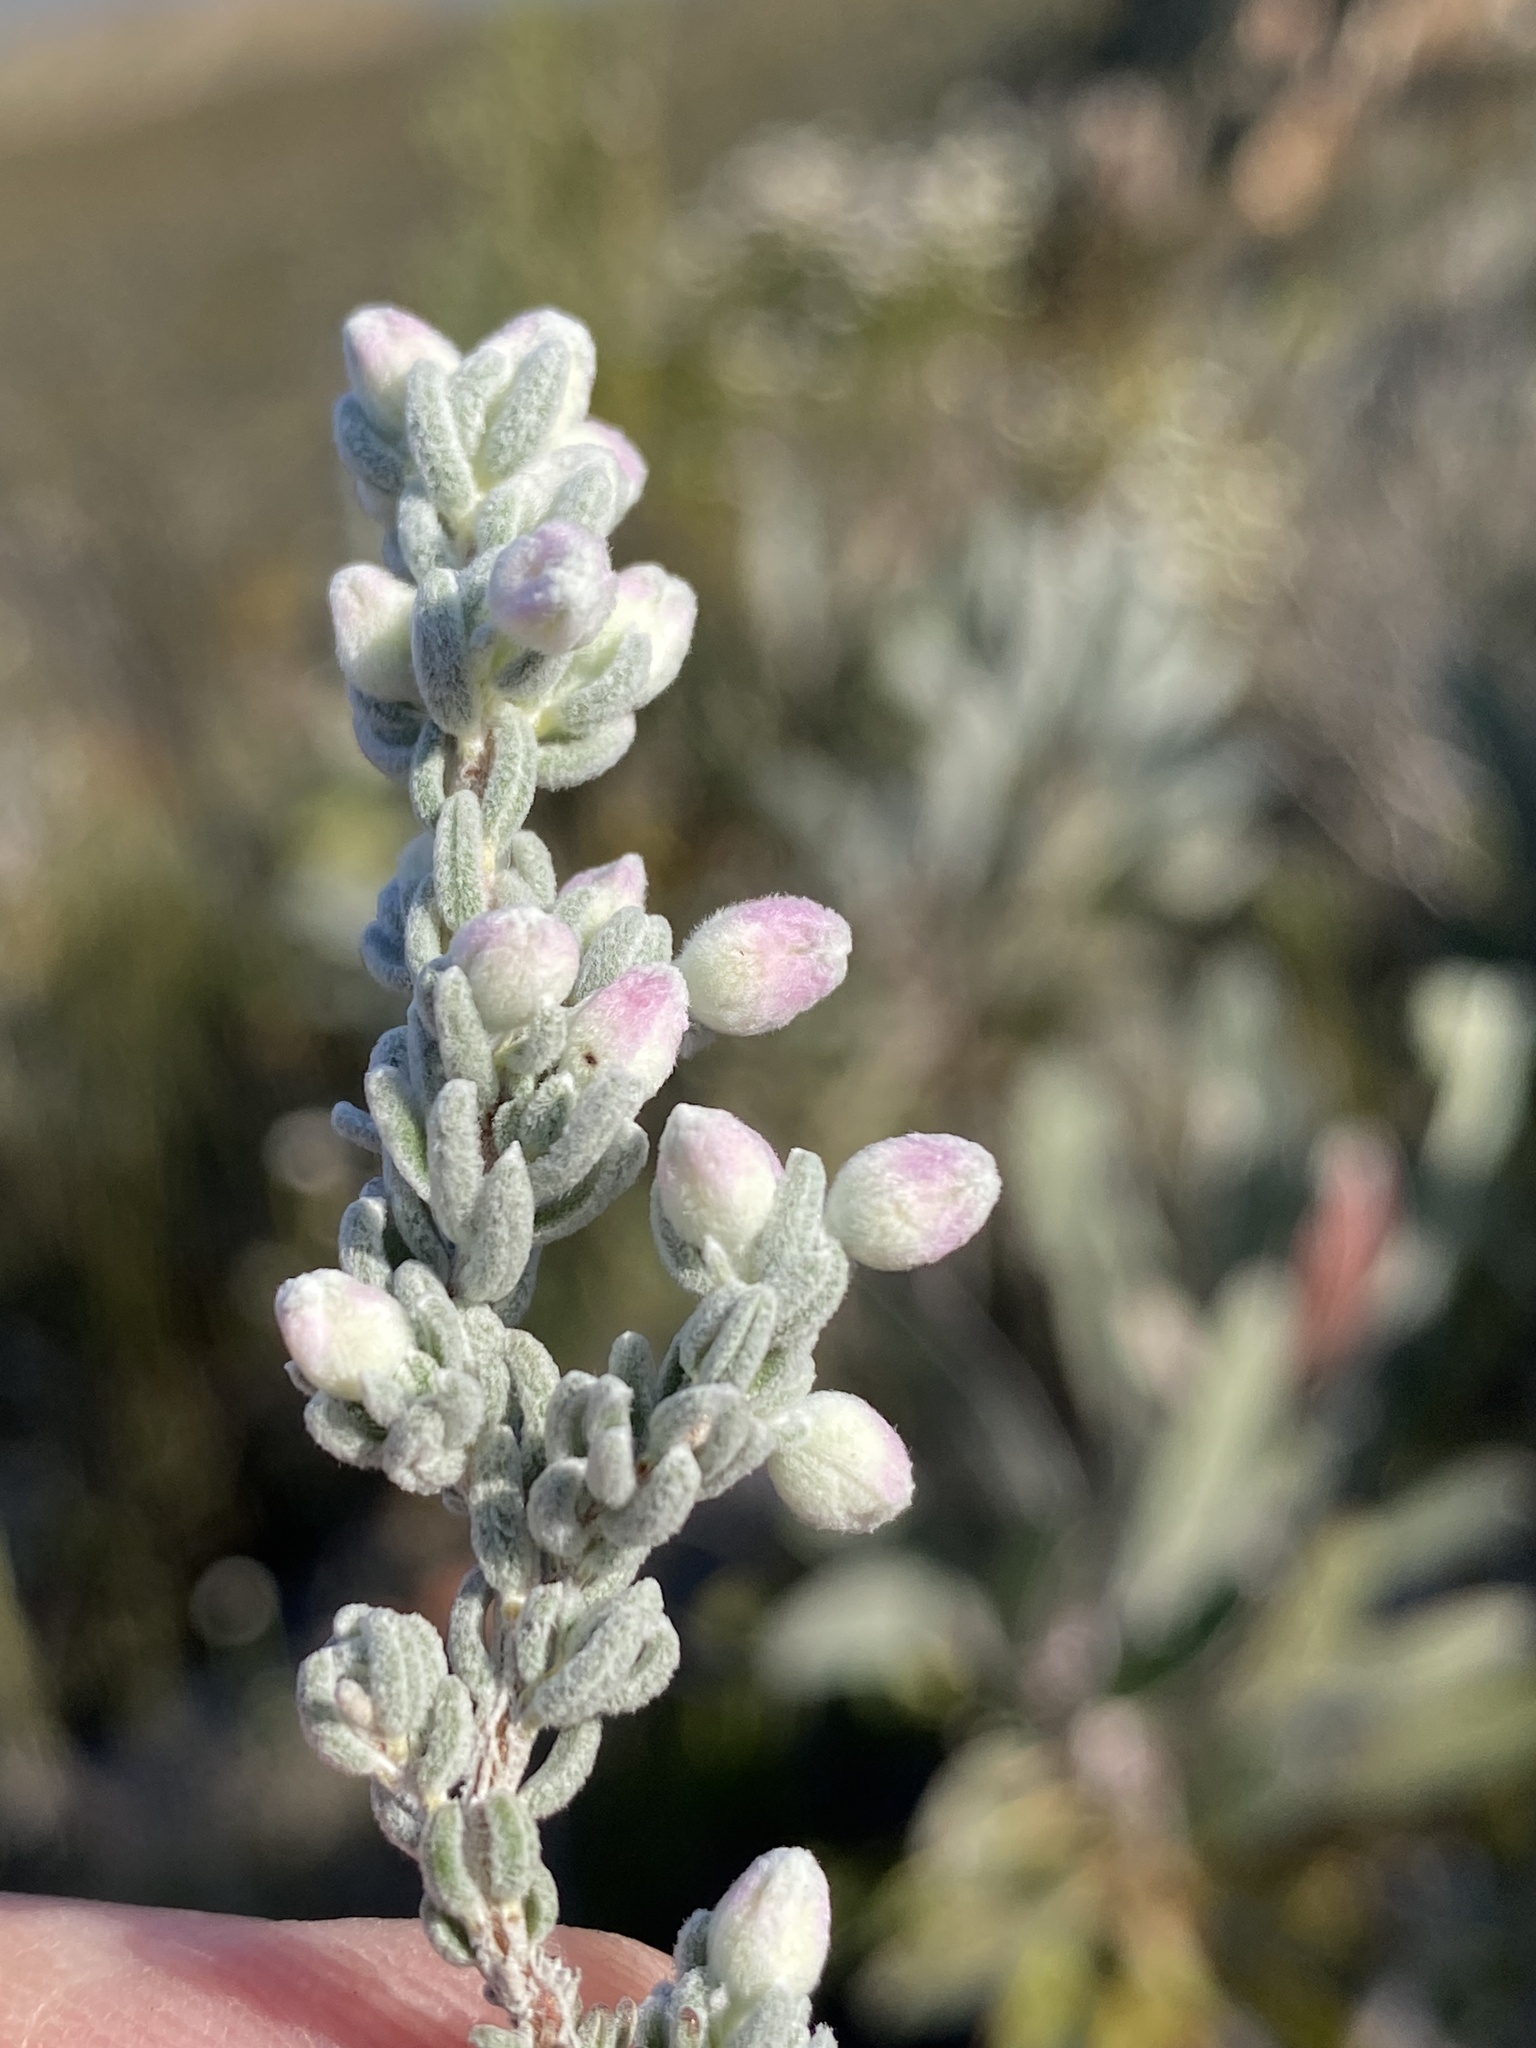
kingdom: Plantae
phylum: Tracheophyta
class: Magnoliopsida
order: Ericales
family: Ericaceae
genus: Erica
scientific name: Erica passerina
